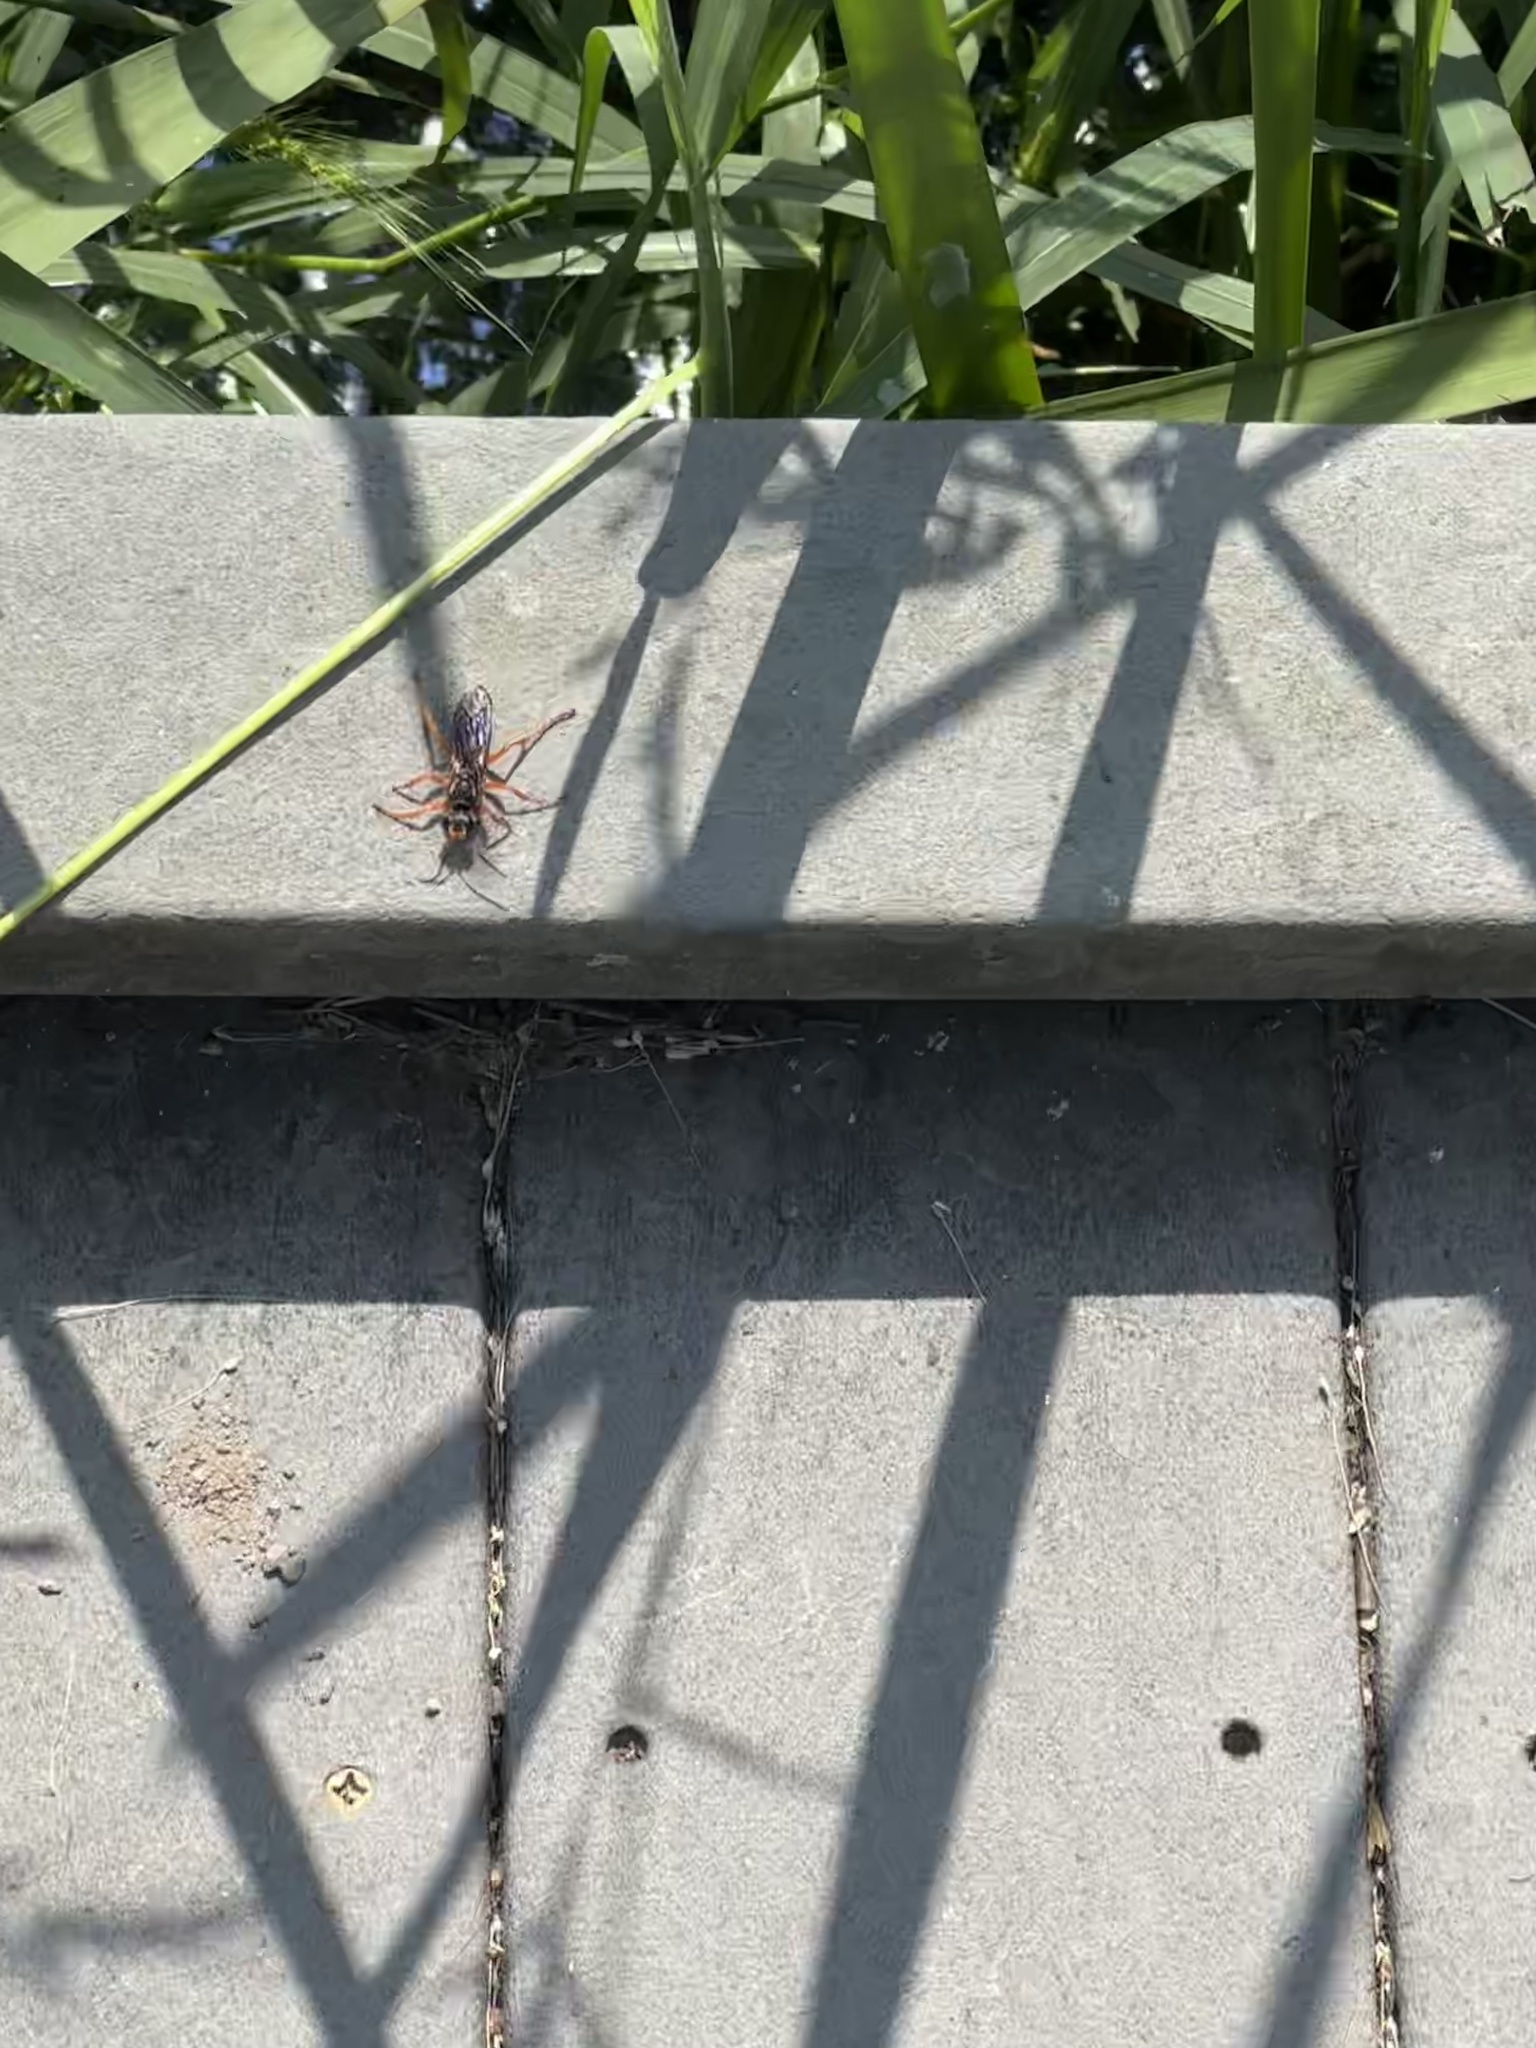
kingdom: Animalia
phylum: Arthropoda
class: Insecta
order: Hymenoptera
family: Sphecidae
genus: Sphex
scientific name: Sphex ichneumoneus
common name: Great golden digger wasp
